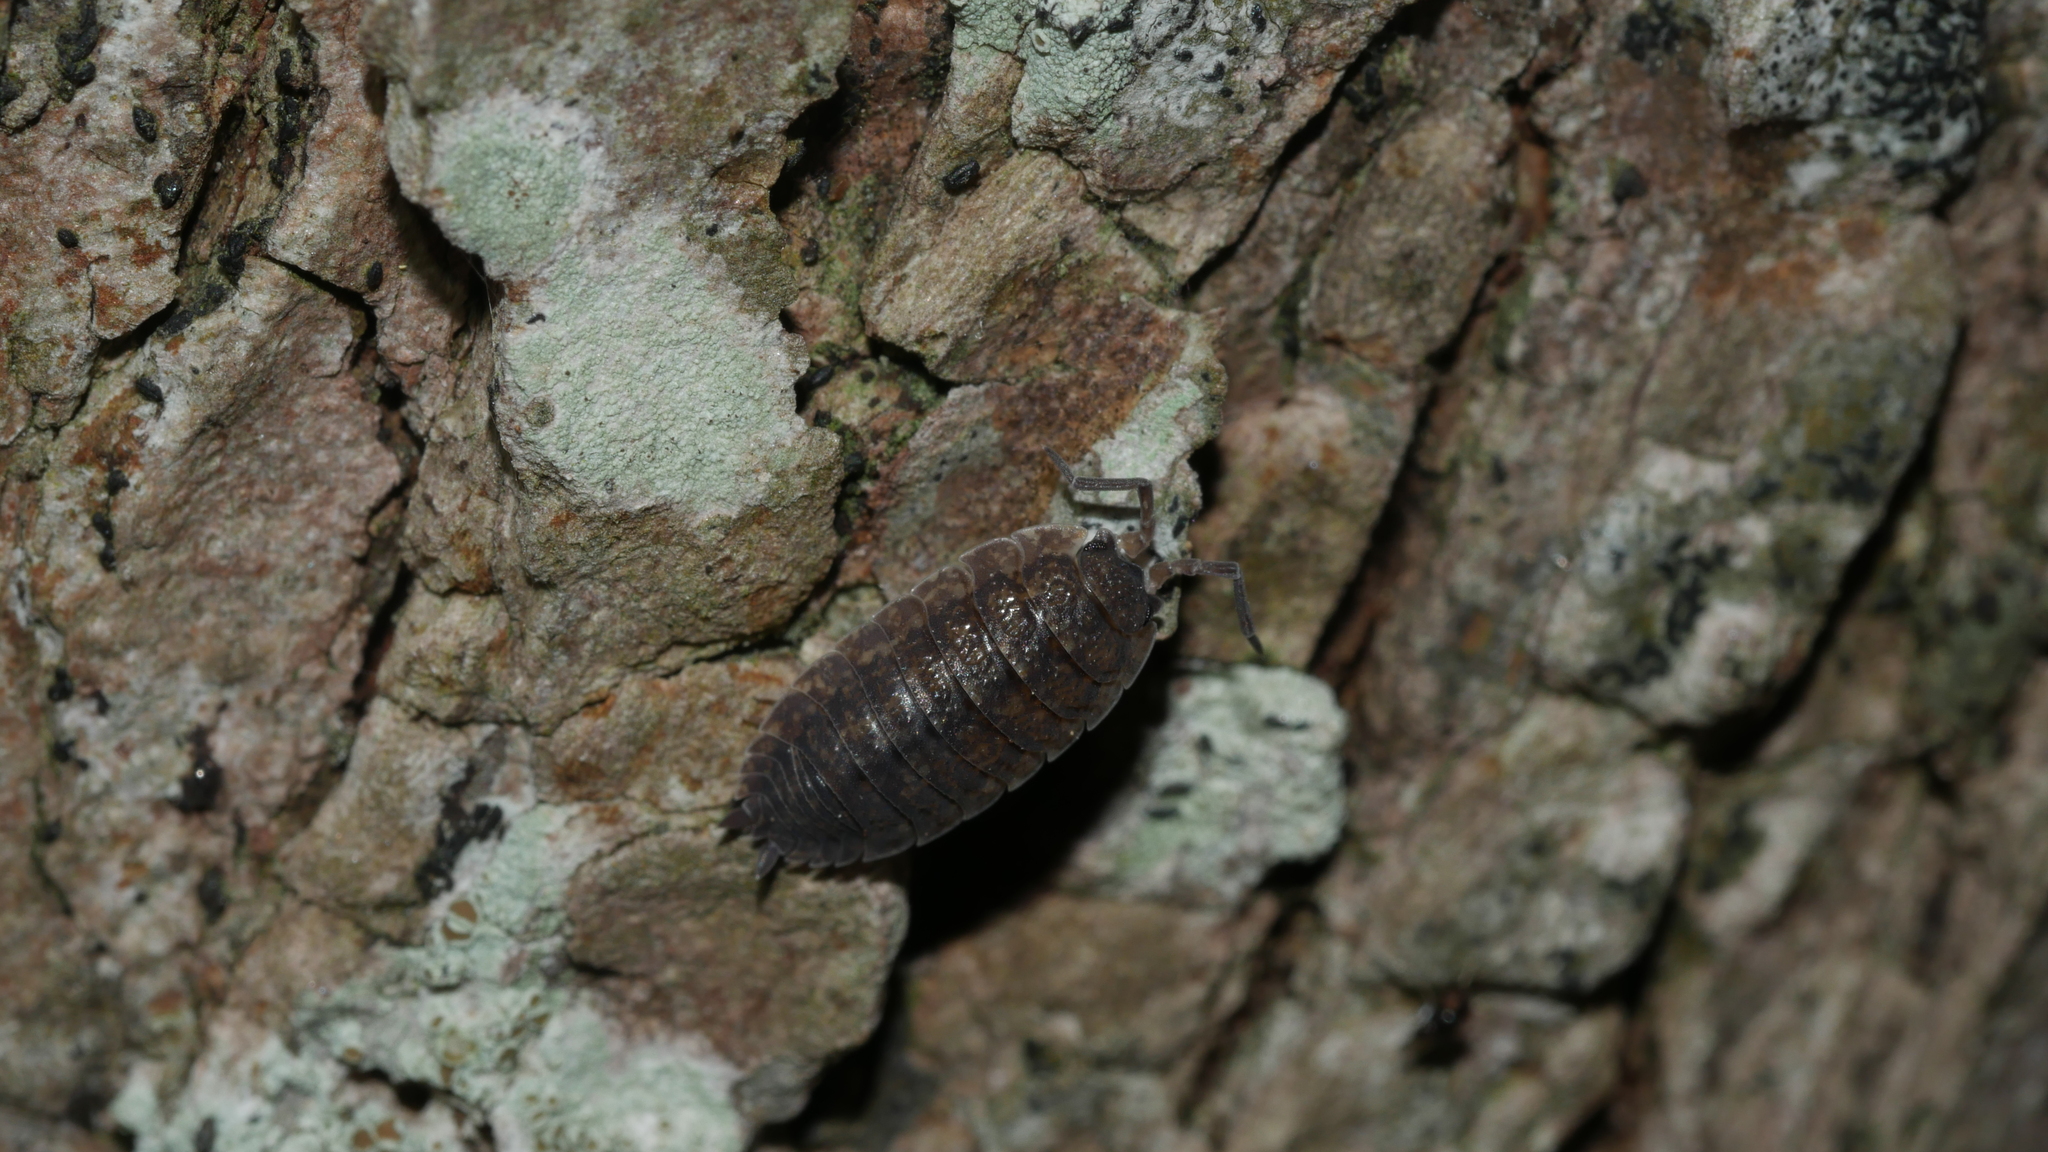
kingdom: Animalia
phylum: Arthropoda
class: Malacostraca
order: Isopoda
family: Porcellionidae
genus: Porcellio
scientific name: Porcellio scaber
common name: Common rough woodlouse
